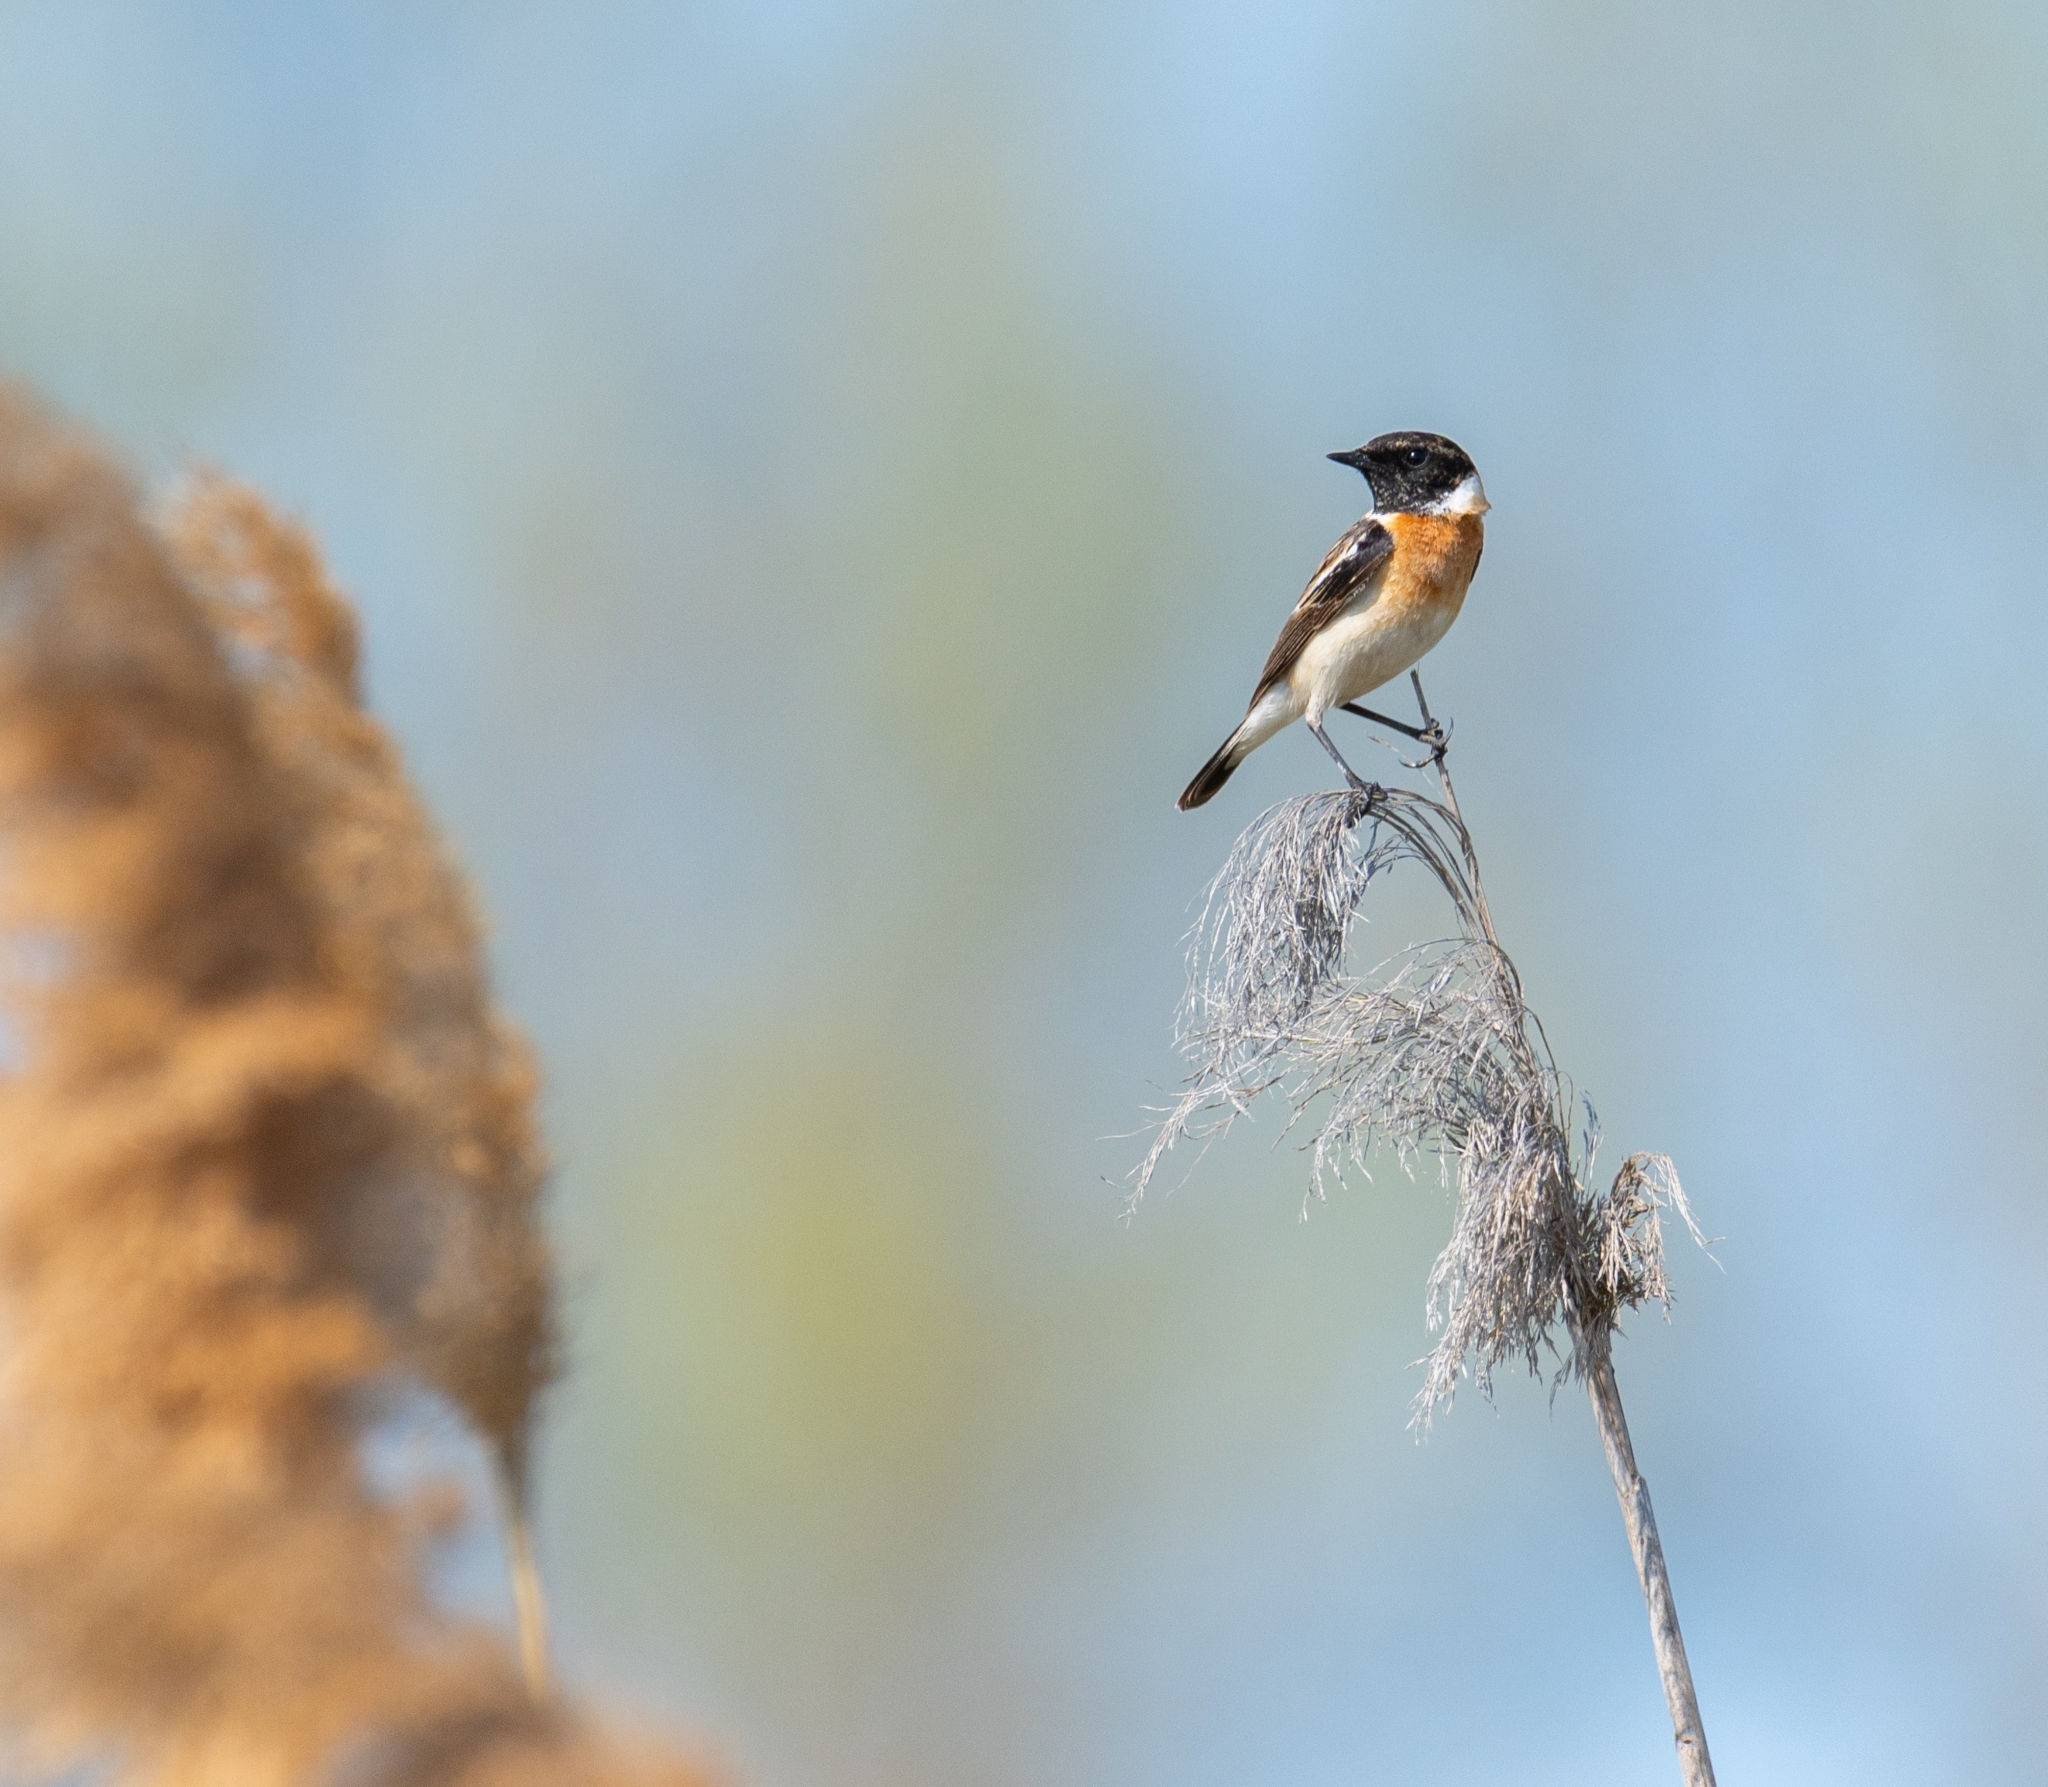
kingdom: Animalia
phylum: Chordata
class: Aves
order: Passeriformes
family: Muscicapidae
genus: Saxicola
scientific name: Saxicola maurus
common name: Siberian stonechat
